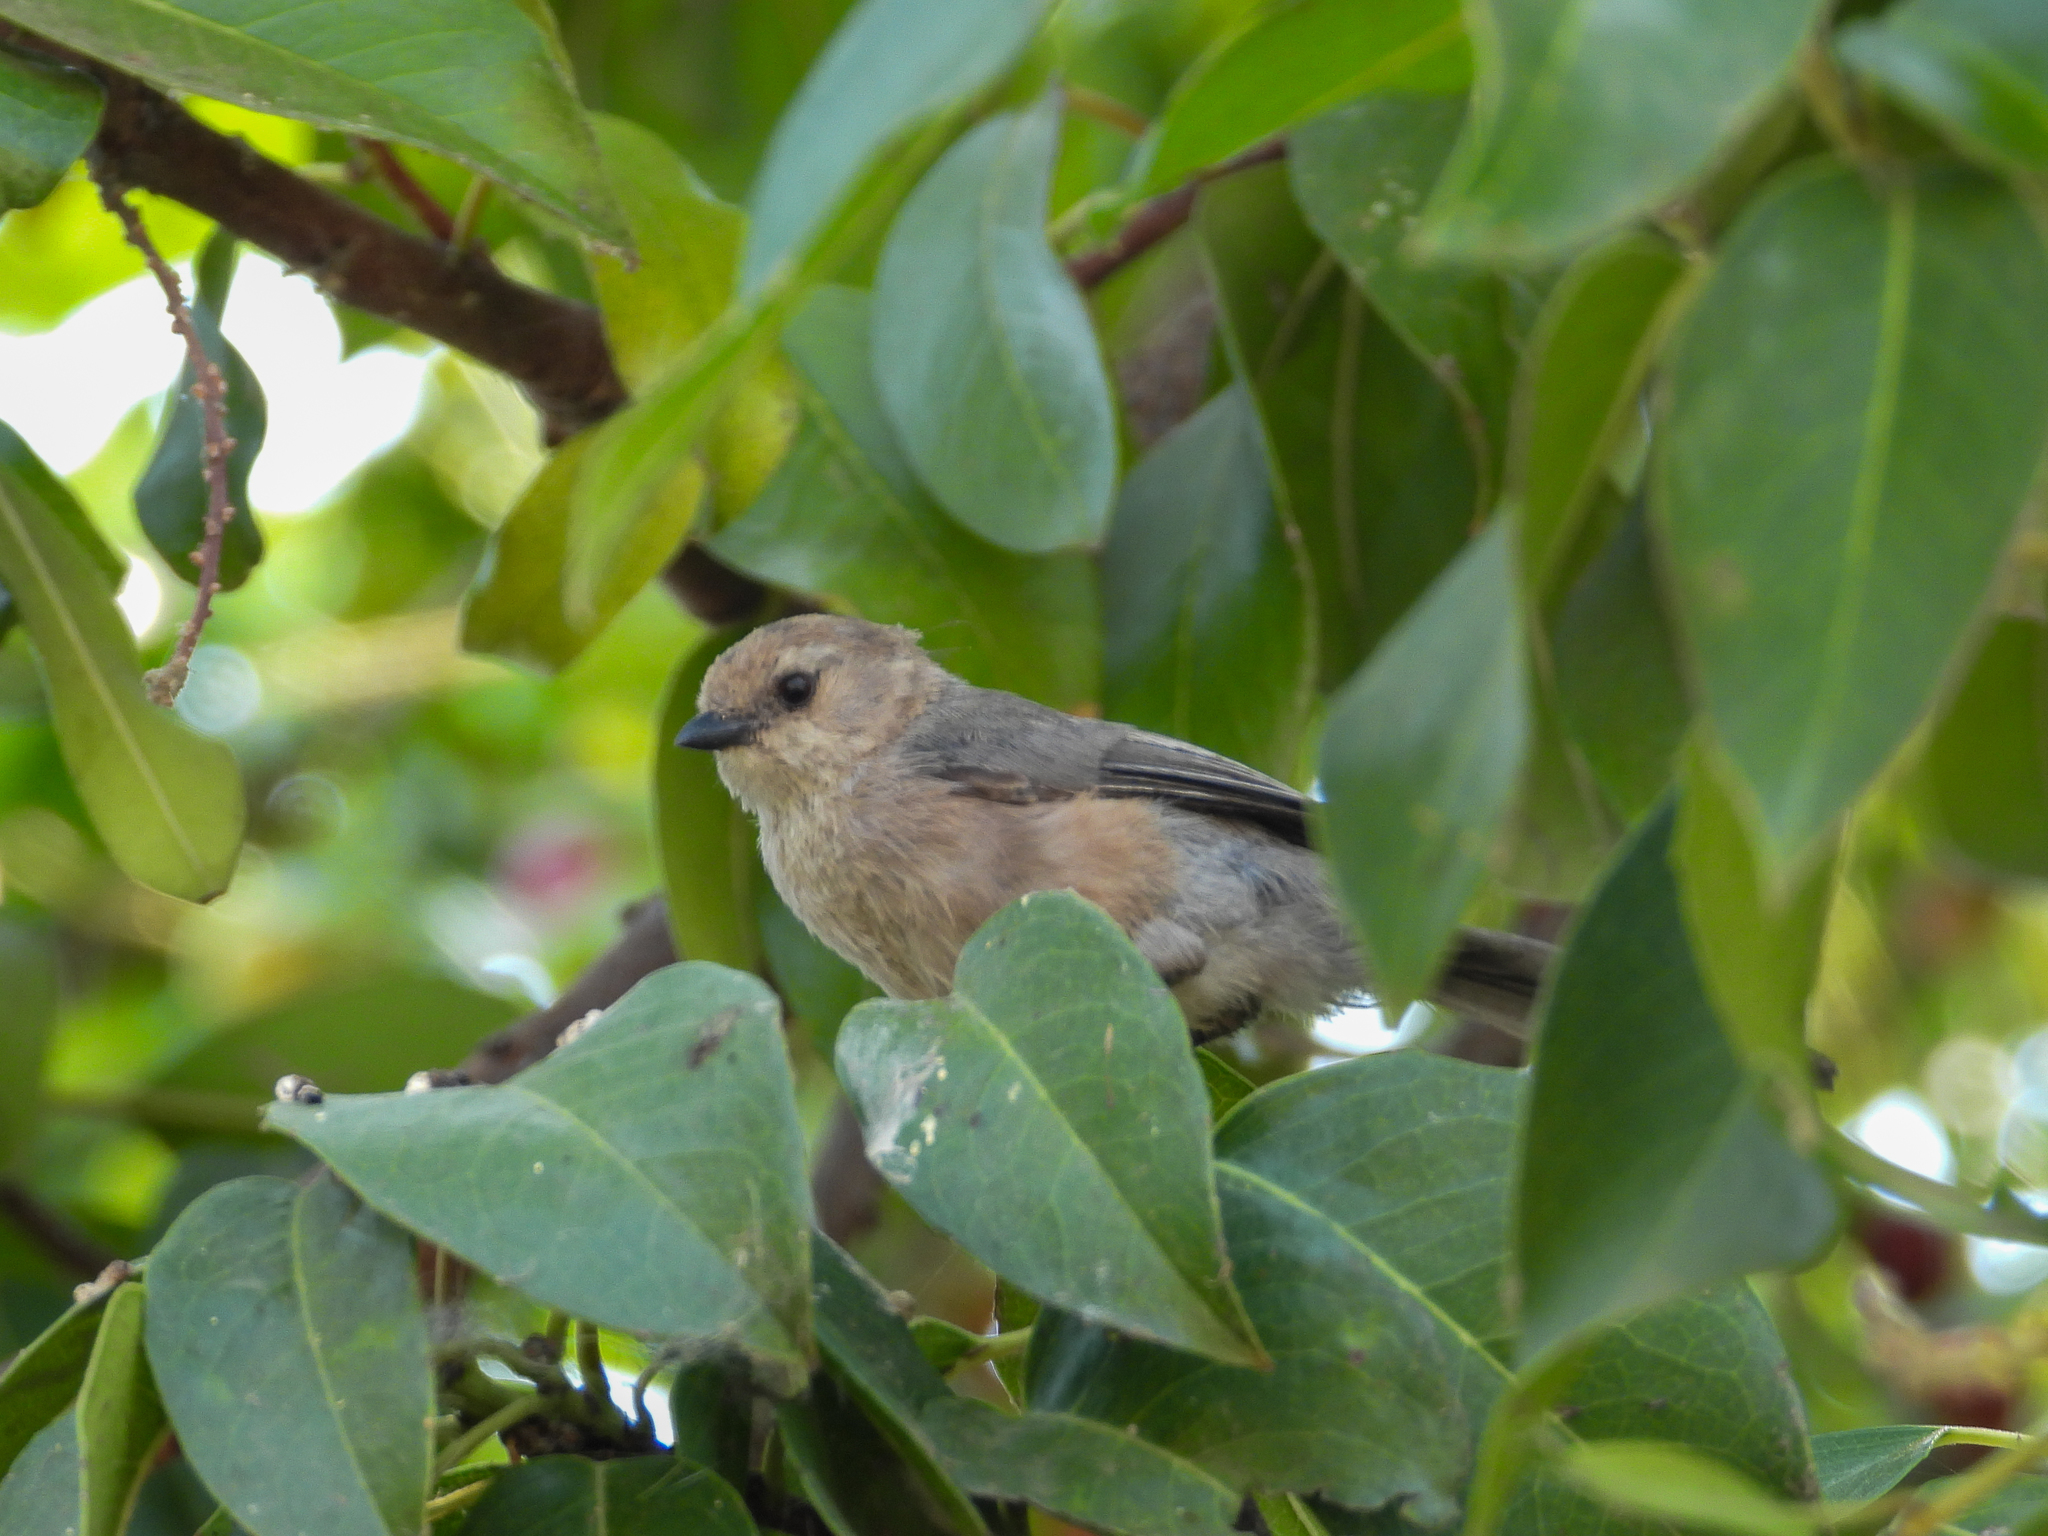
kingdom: Animalia
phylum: Chordata
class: Aves
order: Passeriformes
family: Aegithalidae
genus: Psaltriparus
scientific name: Psaltriparus minimus
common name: American bushtit
